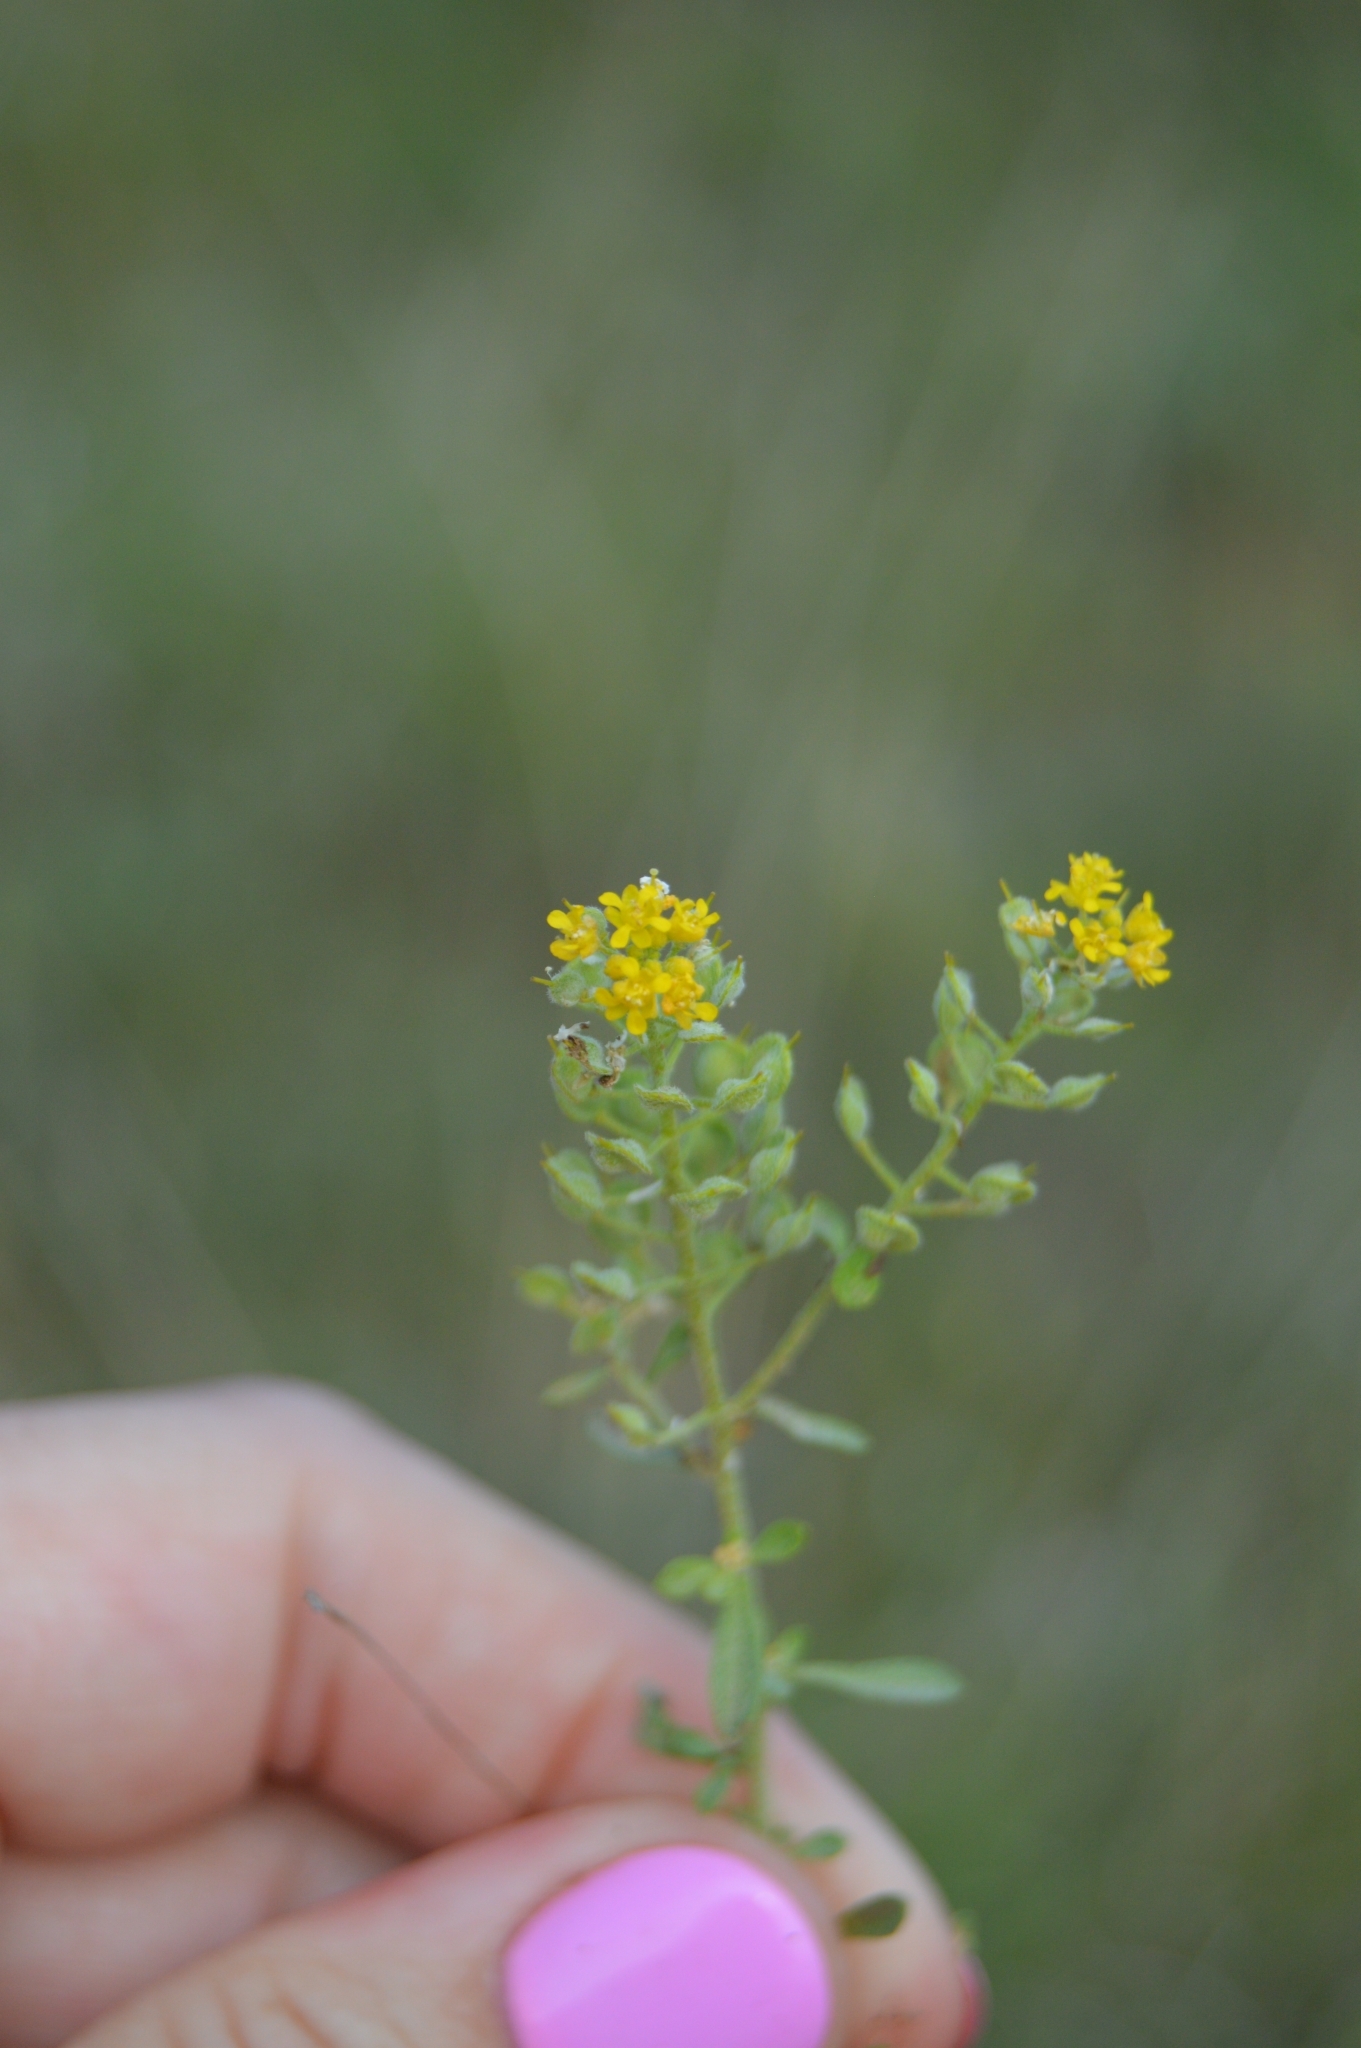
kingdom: Plantae
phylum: Tracheophyta
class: Magnoliopsida
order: Brassicales
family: Brassicaceae
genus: Odontarrhena
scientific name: Odontarrhena tortuosa
